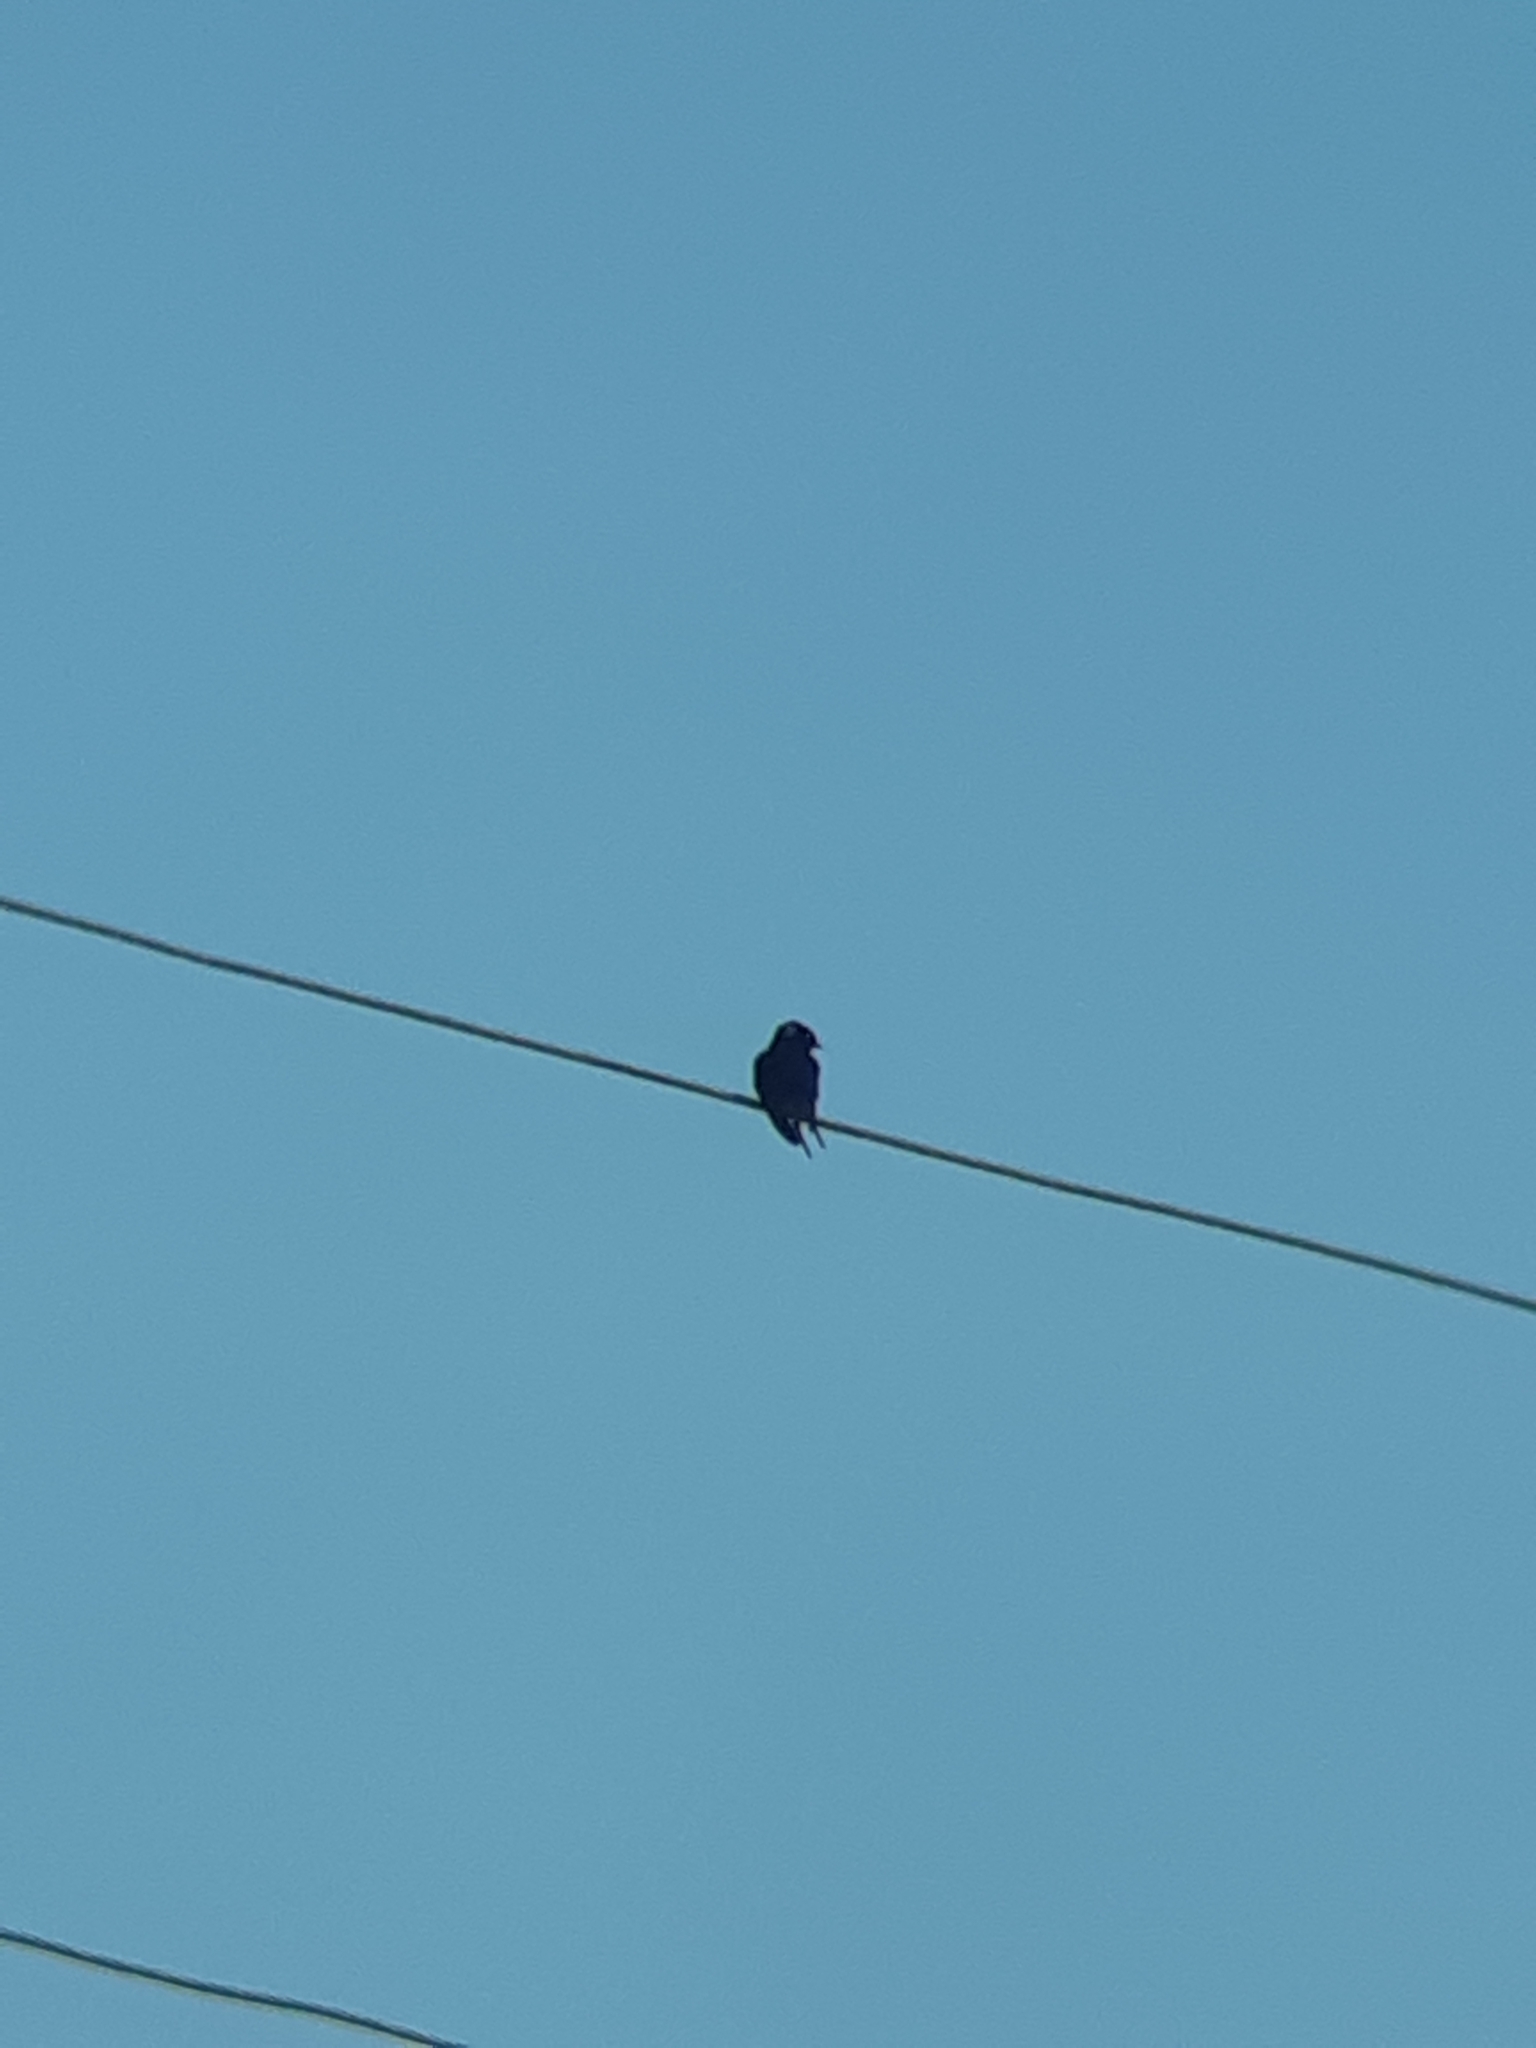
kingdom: Animalia
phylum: Chordata
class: Aves
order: Passeriformes
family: Hirundinidae
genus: Hirundo
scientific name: Hirundo rustica
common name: Barn swallow
